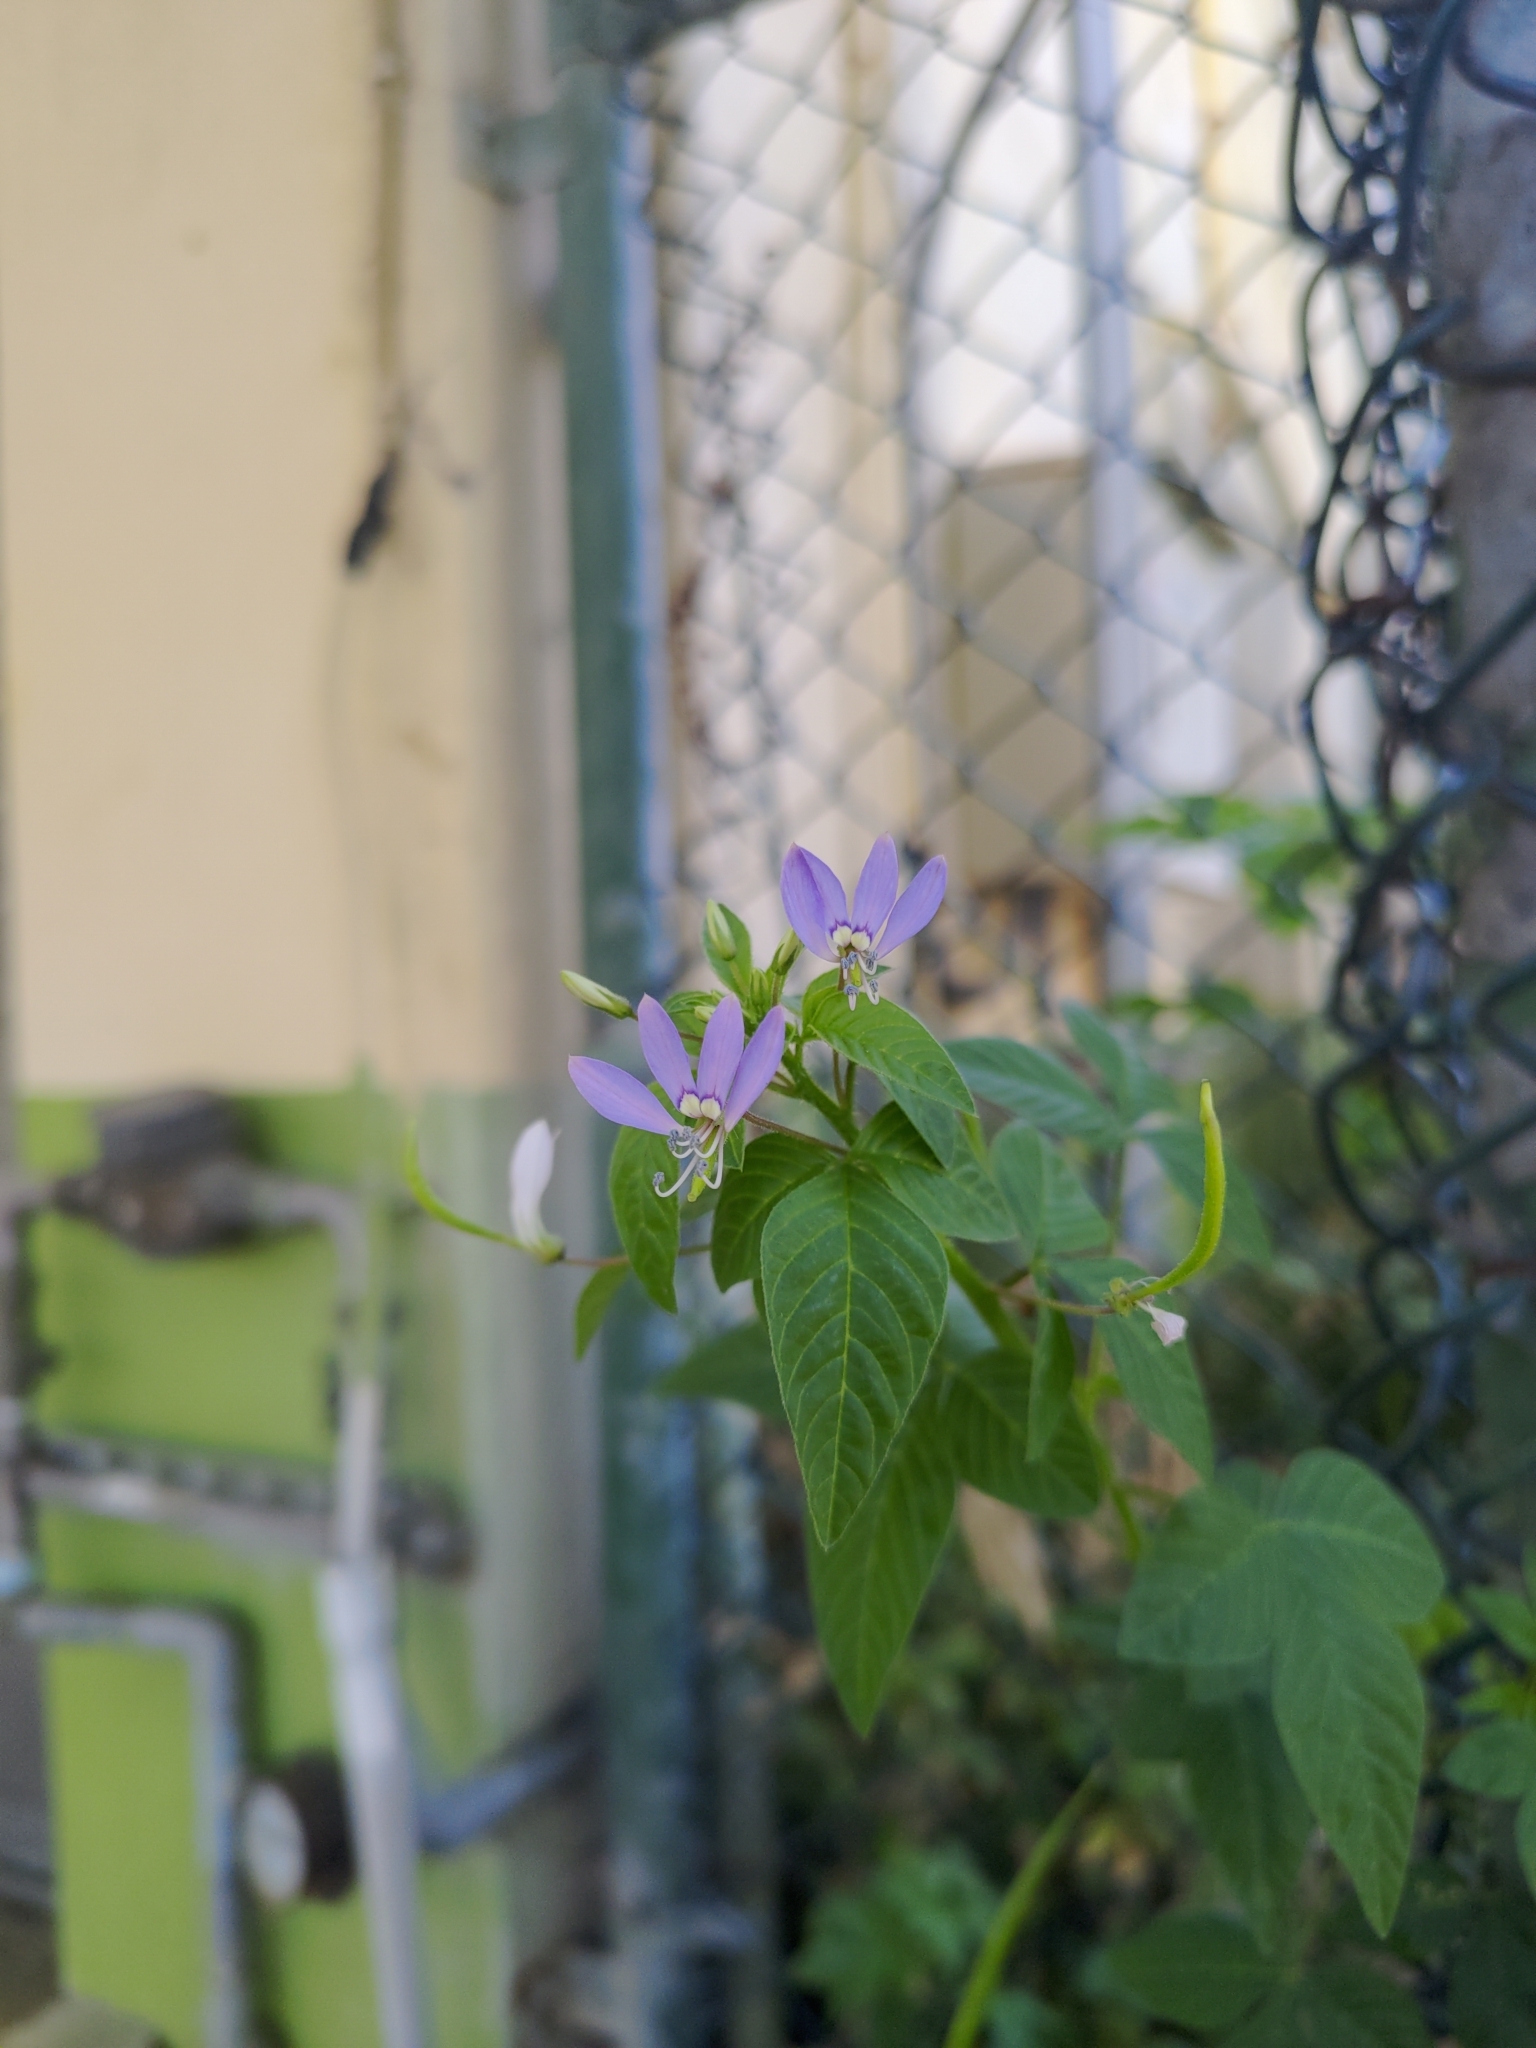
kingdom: Plantae
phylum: Tracheophyta
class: Magnoliopsida
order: Brassicales
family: Cleomaceae
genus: Sieruela
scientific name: Sieruela rutidosperma
